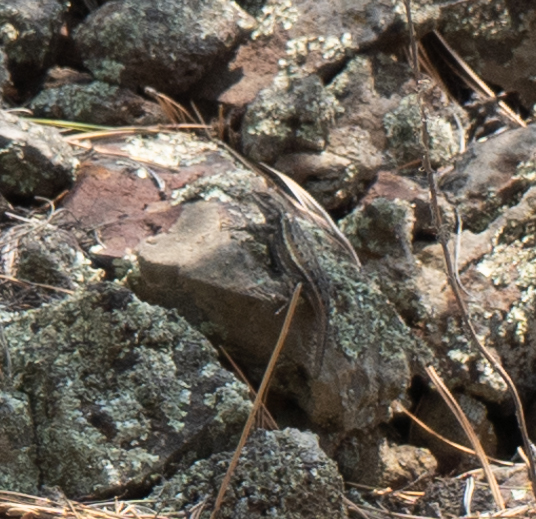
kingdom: Animalia
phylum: Chordata
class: Squamata
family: Phrynosomatidae
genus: Sceloporus
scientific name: Sceloporus cowlesi
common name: White sands prairie lizard
